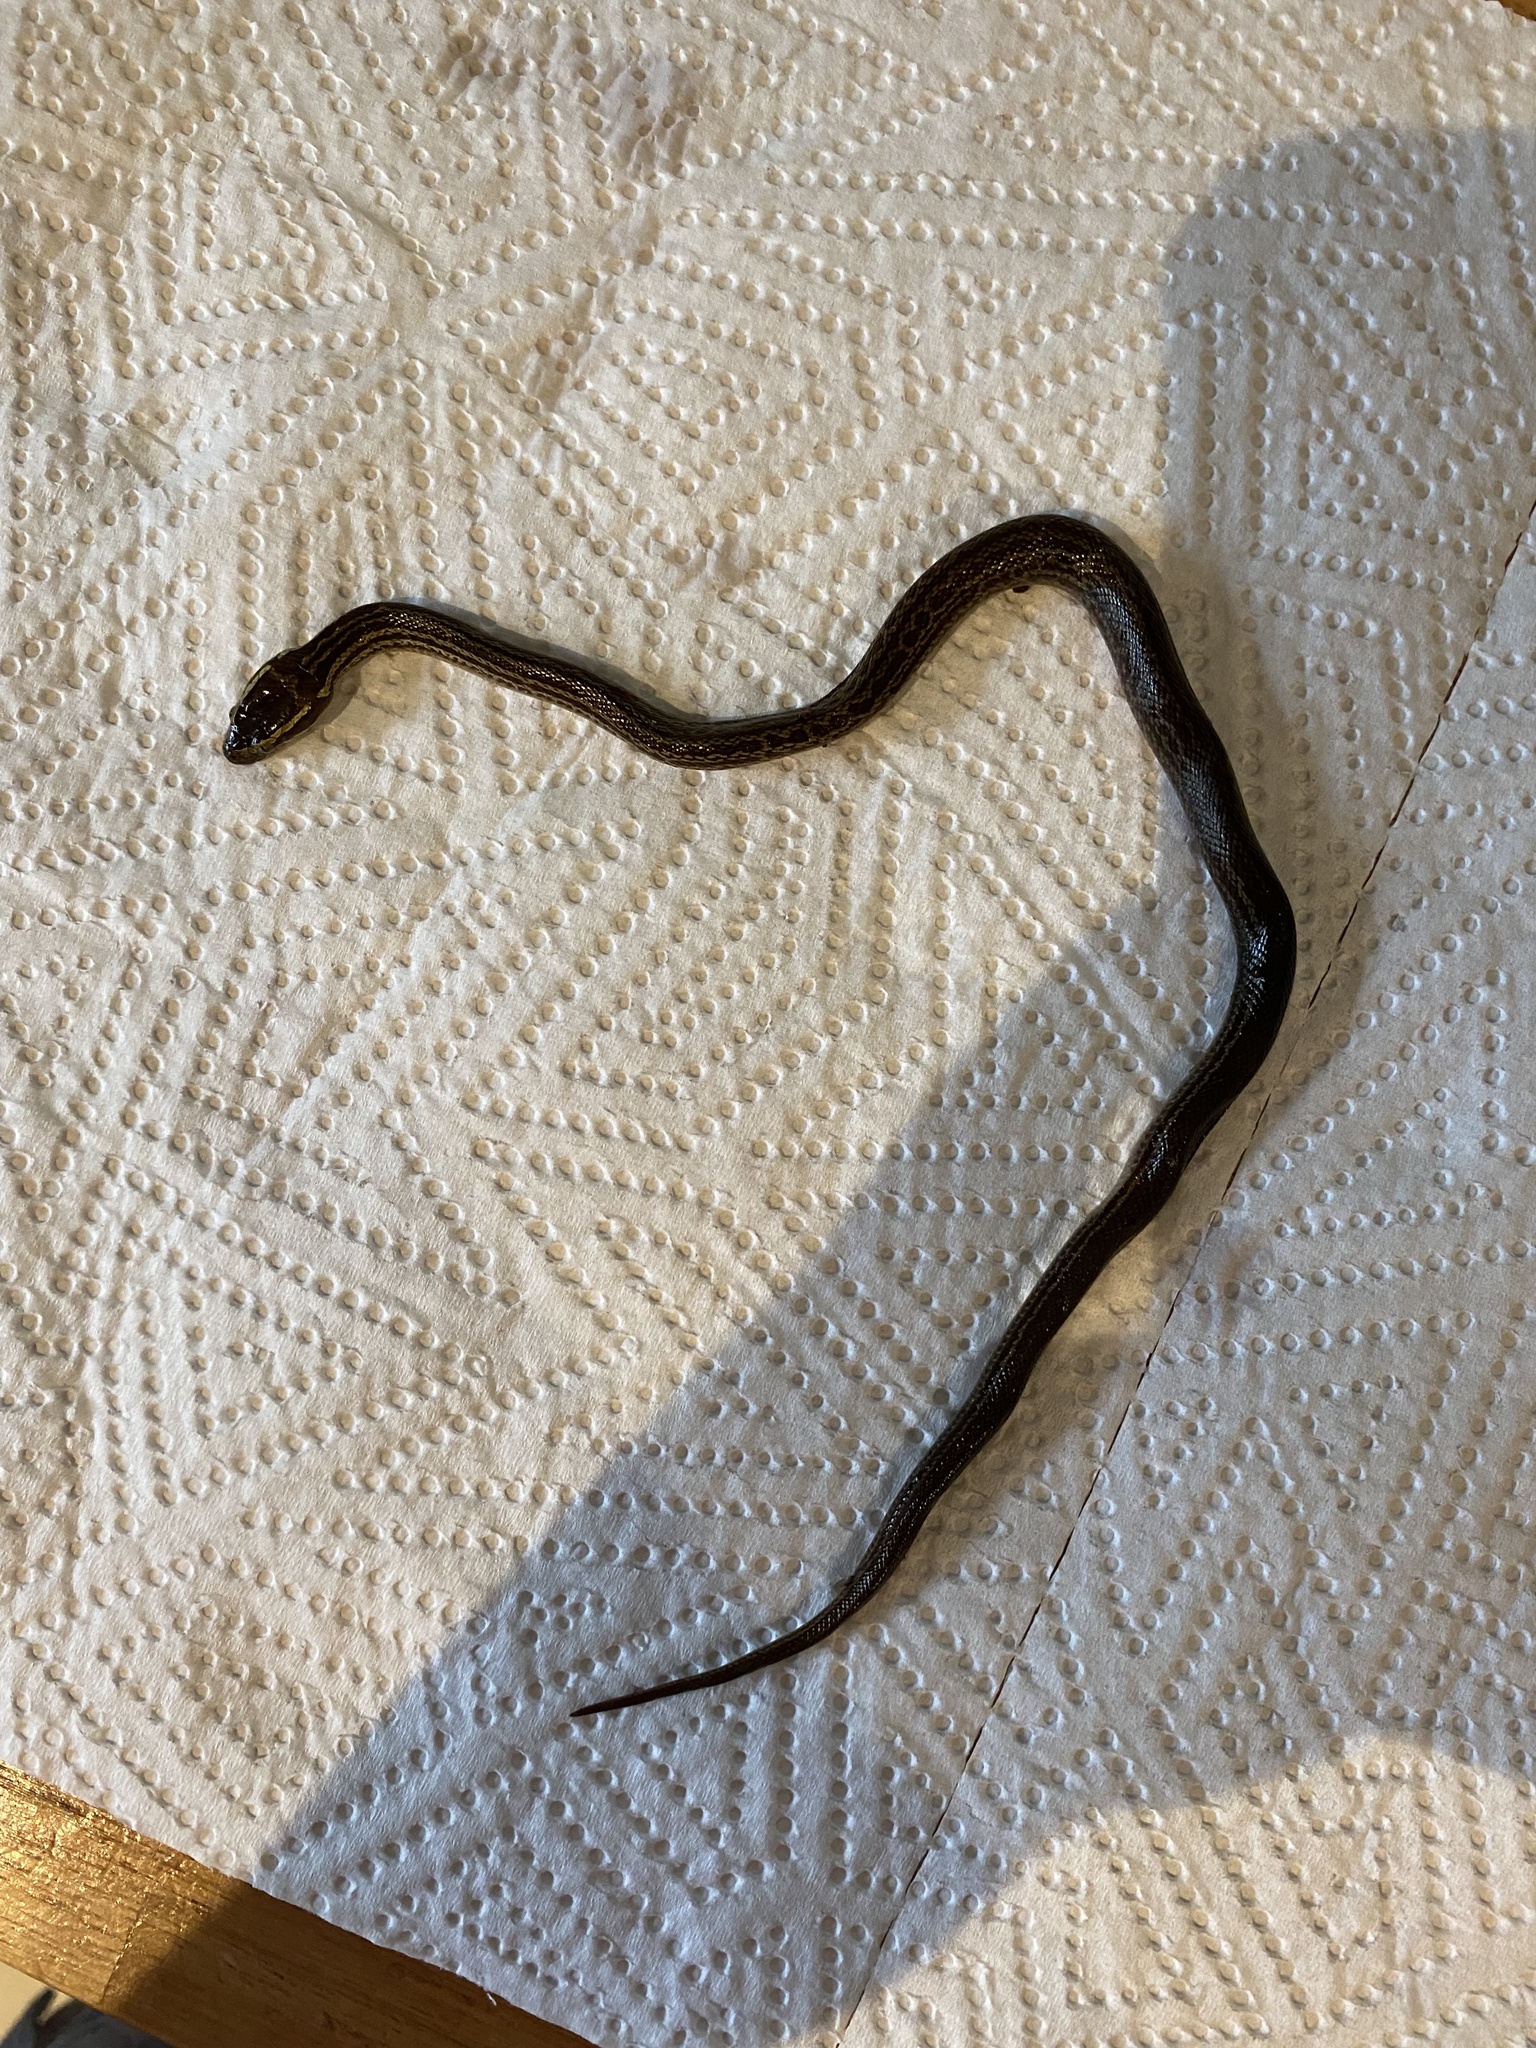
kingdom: Animalia
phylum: Chordata
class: Squamata
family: Lamprophiidae
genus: Boaedon
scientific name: Boaedon capensis
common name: Brown house snake
